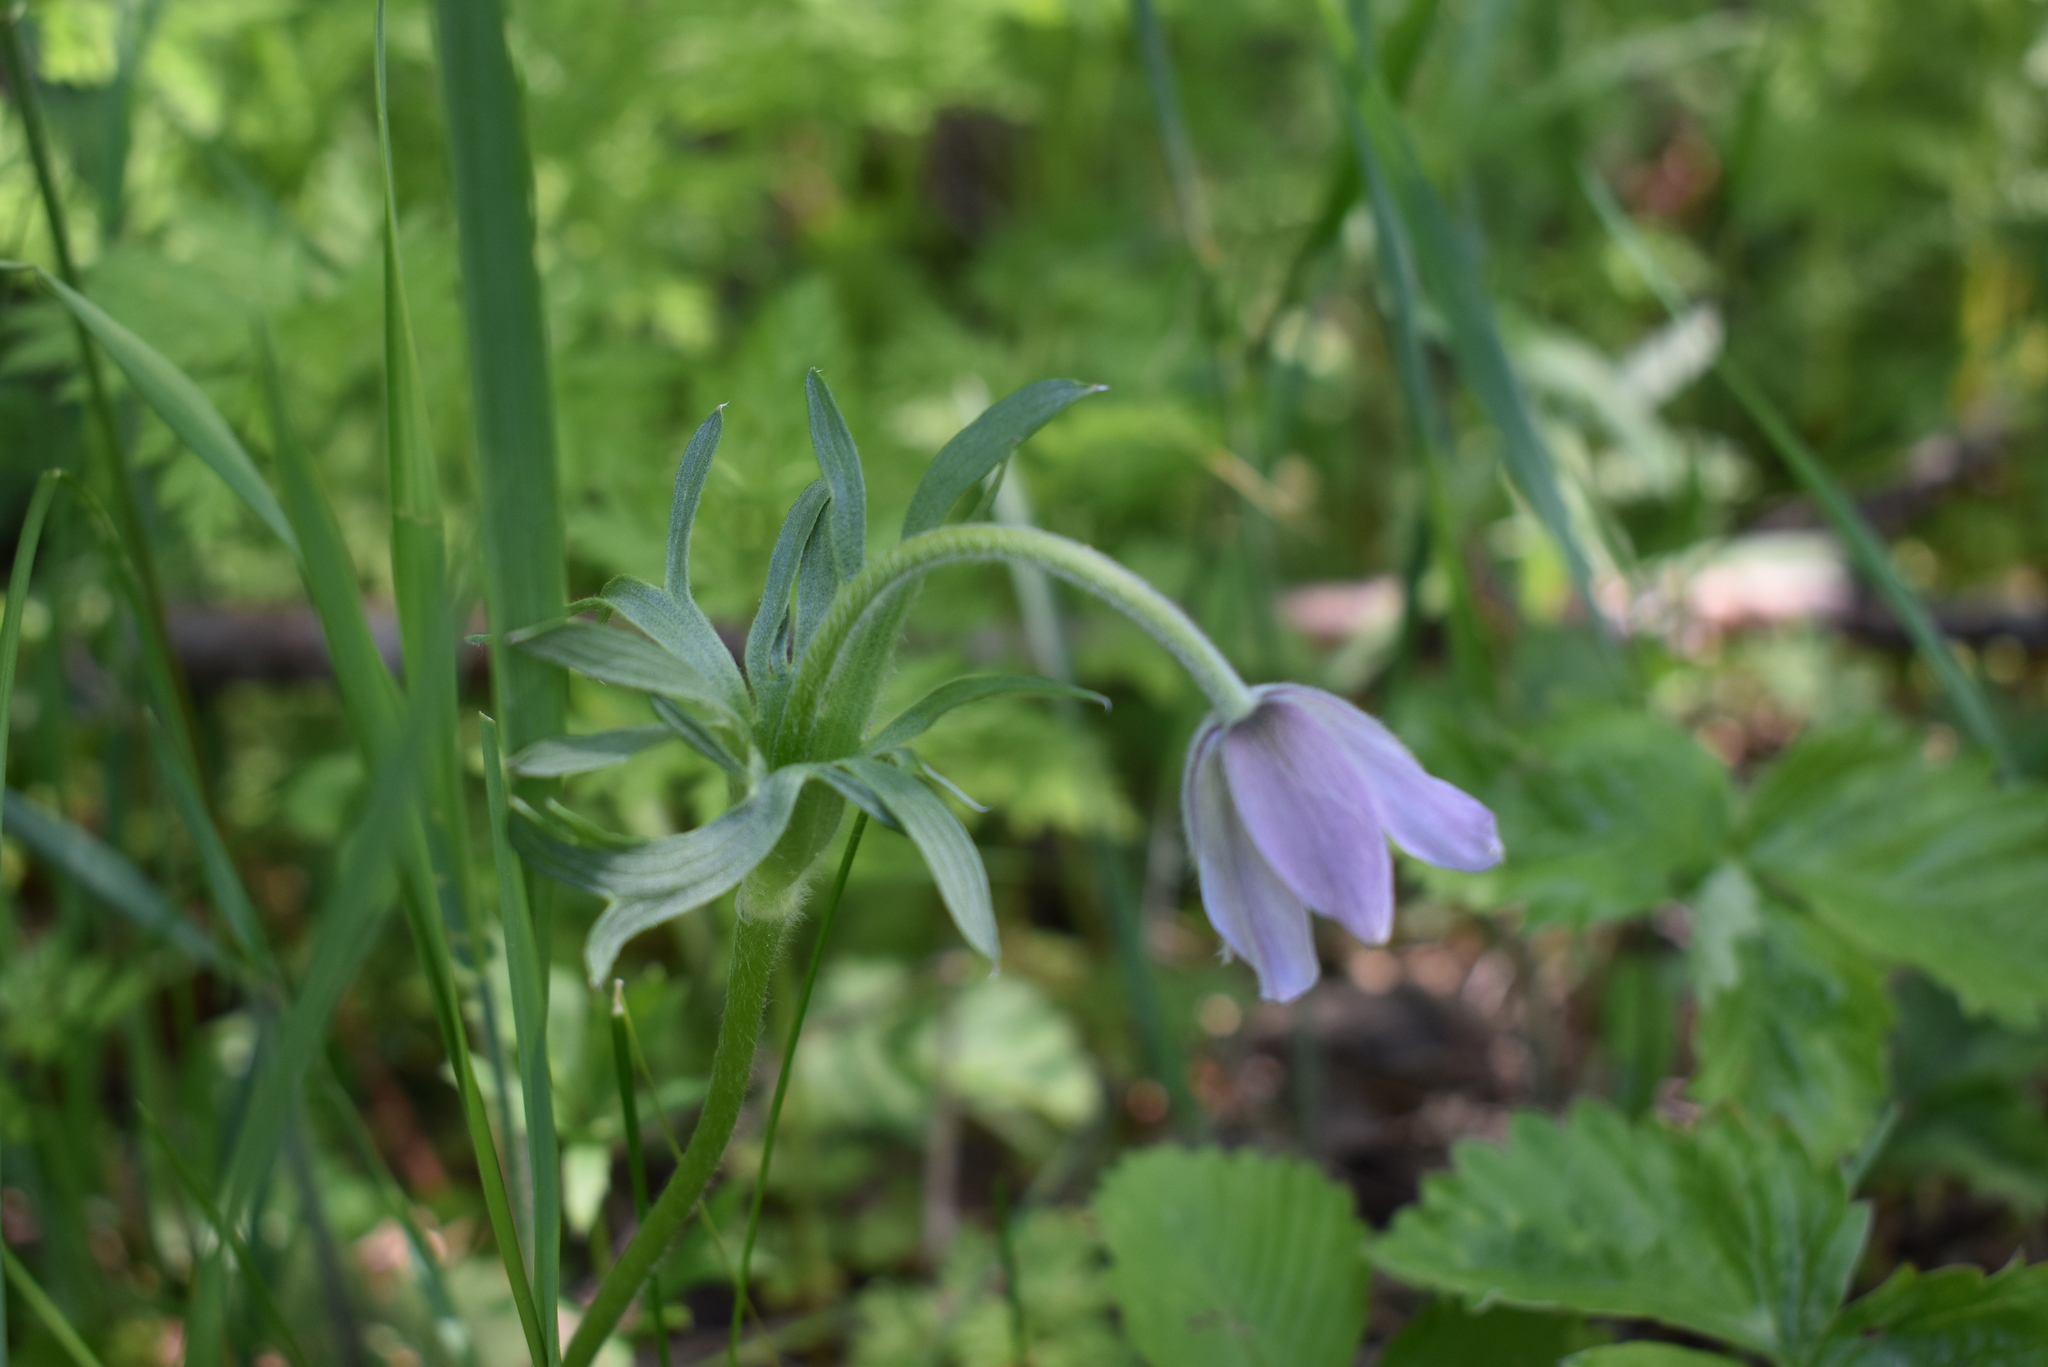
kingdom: Plantae
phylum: Tracheophyta
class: Magnoliopsida
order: Ranunculales
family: Ranunculaceae
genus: Pulsatilla
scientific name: Pulsatilla dahurica
